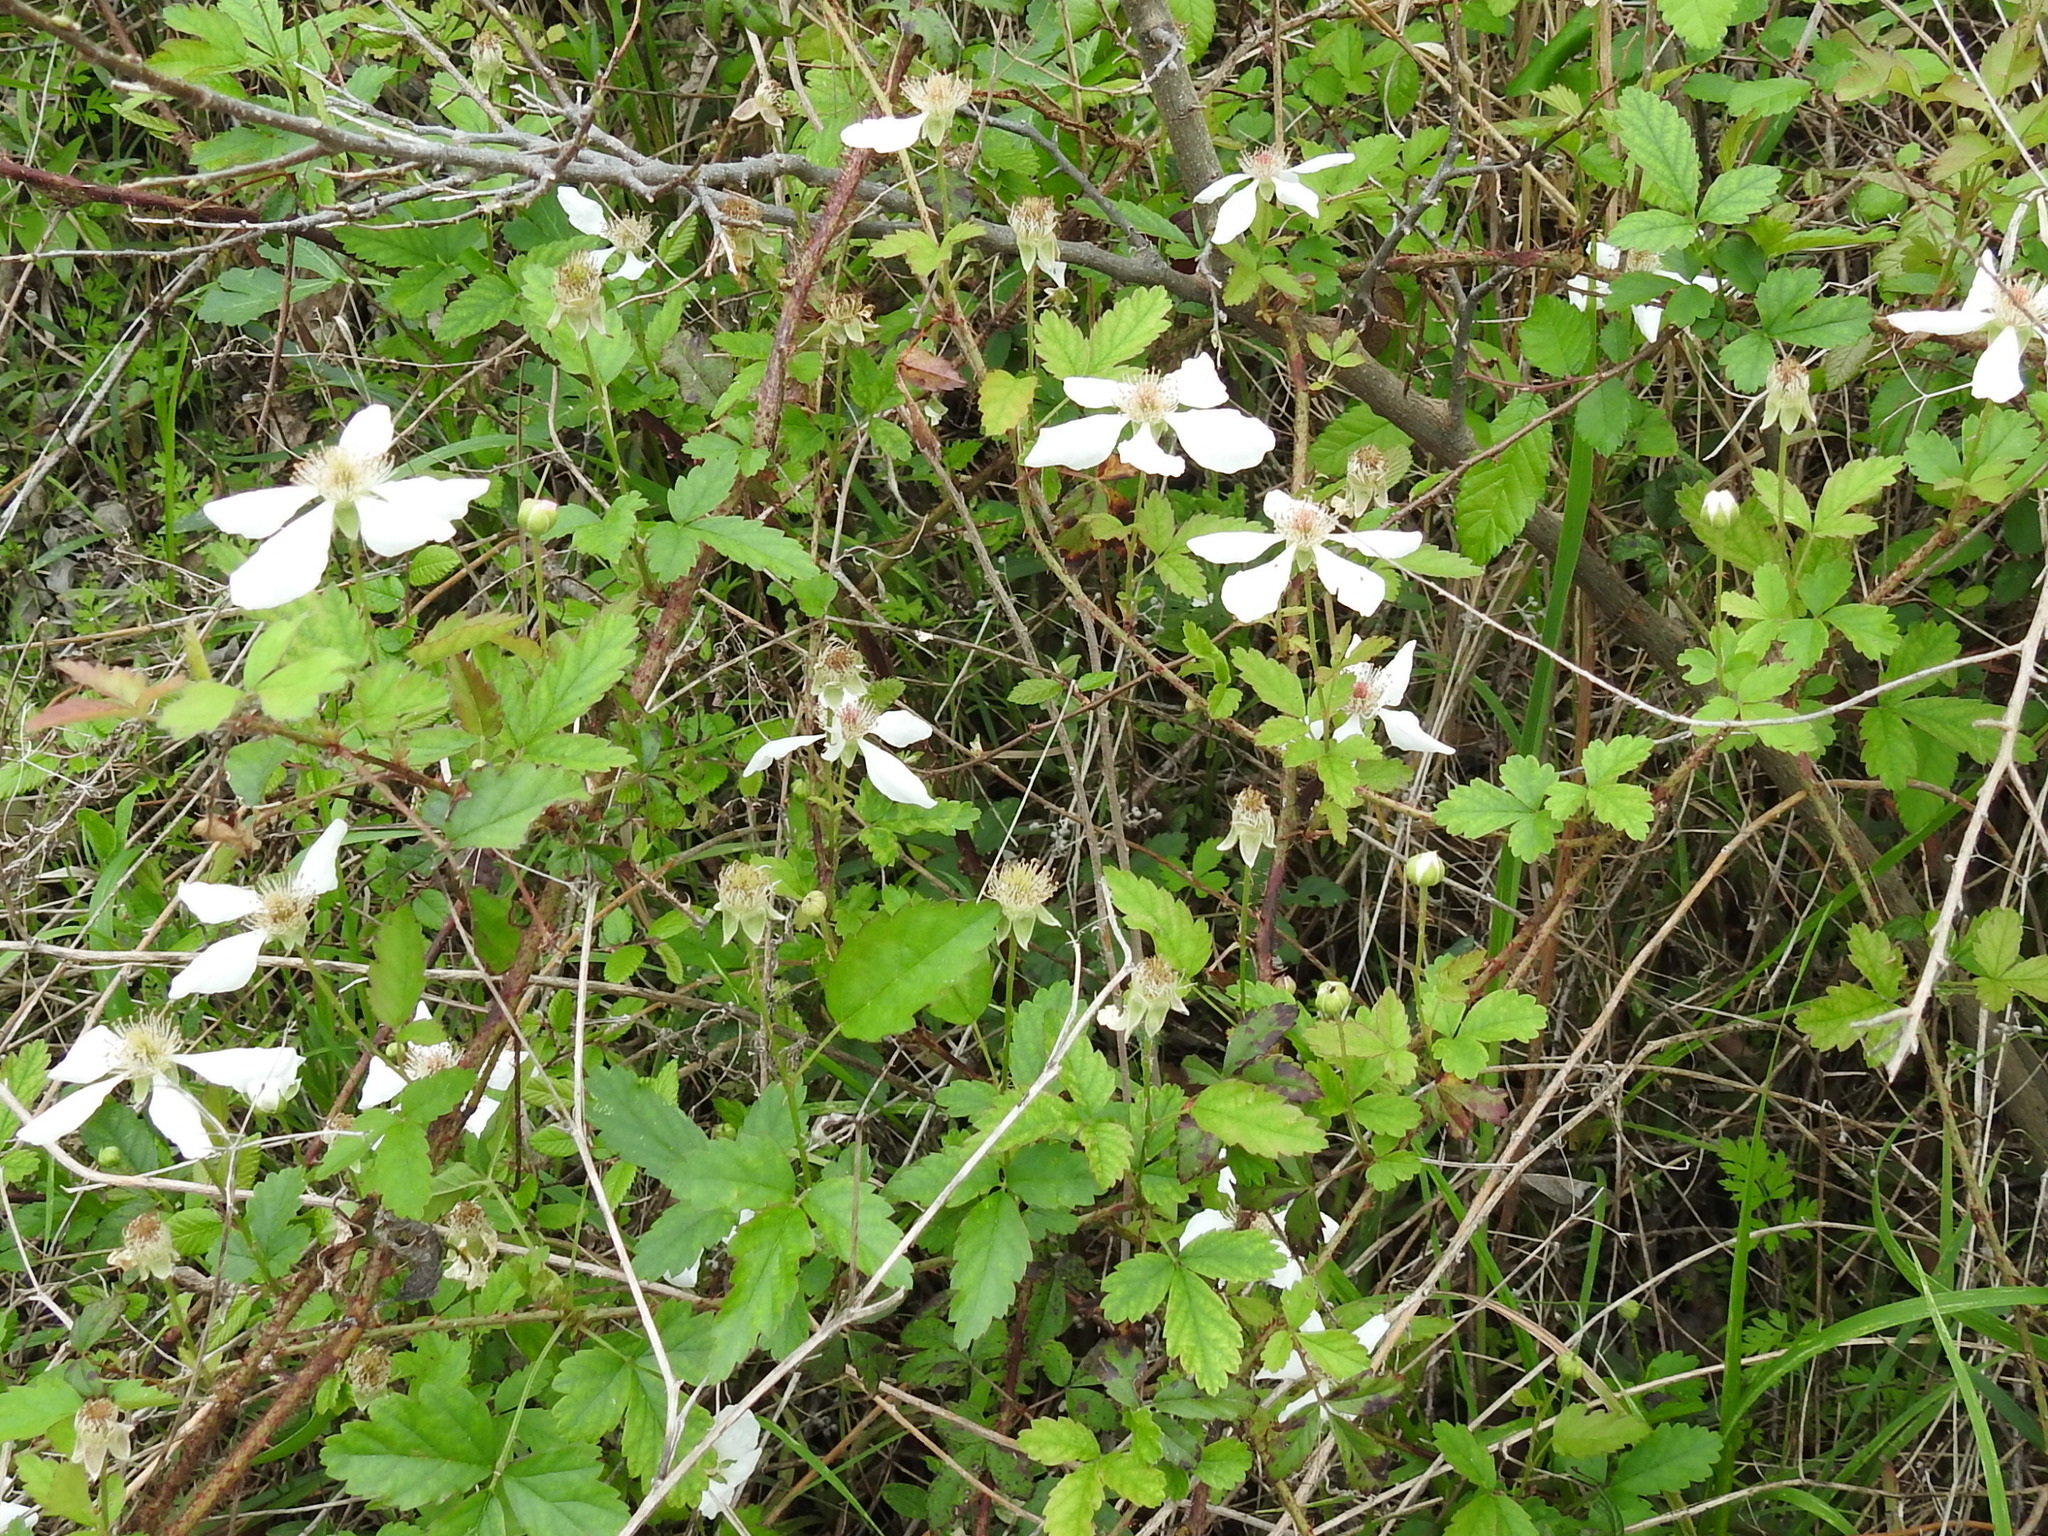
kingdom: Plantae
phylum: Tracheophyta
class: Magnoliopsida
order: Rosales
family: Rosaceae
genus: Rubus
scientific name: Rubus trivialis
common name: Southern dewberry
